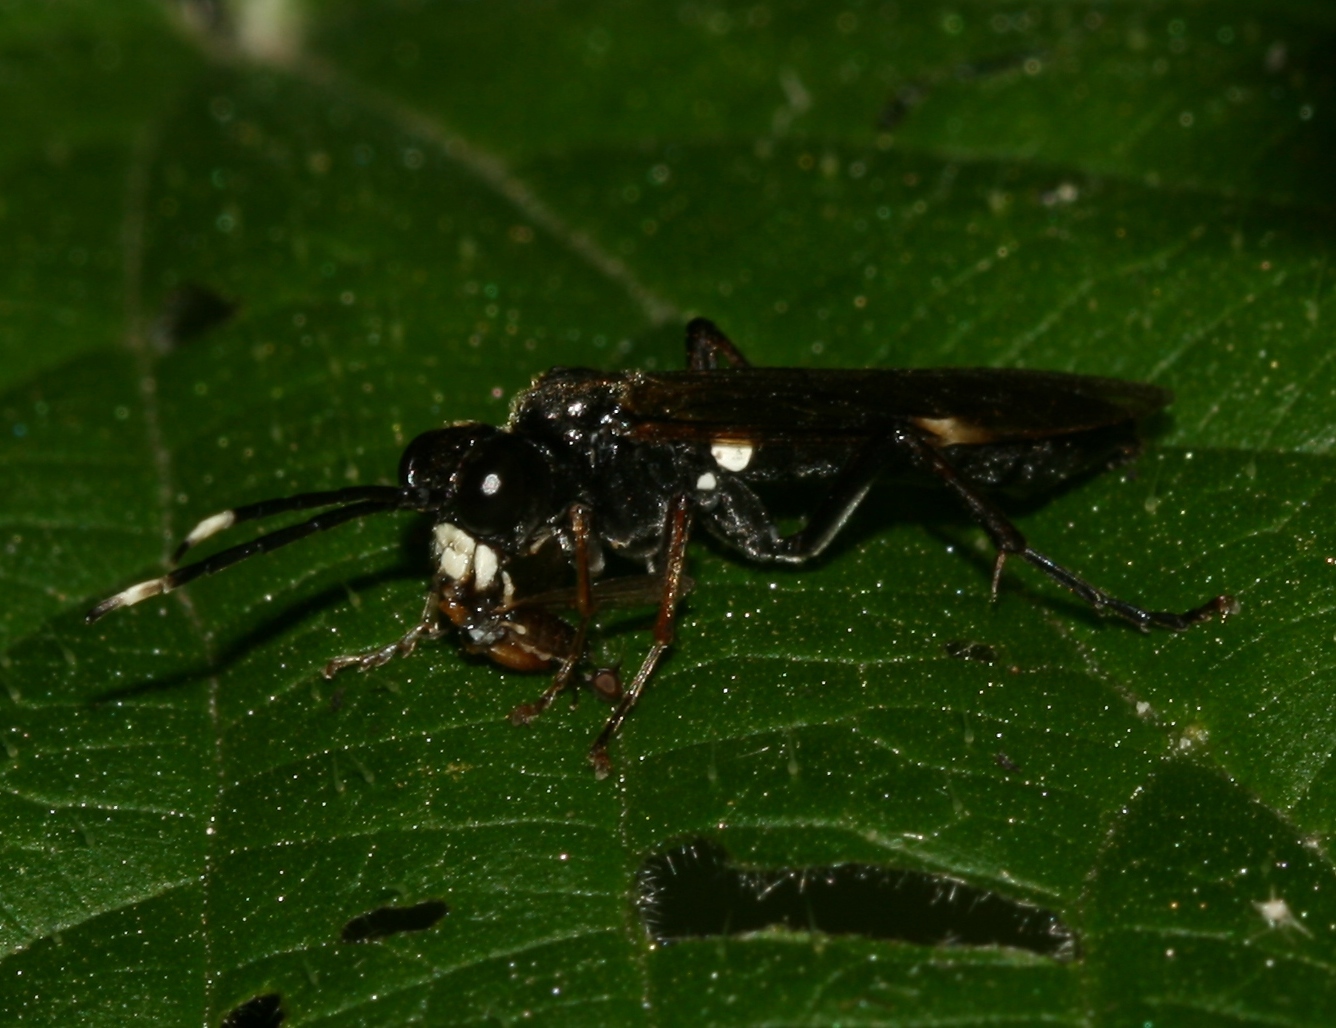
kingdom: Animalia
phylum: Arthropoda
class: Insecta
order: Hymenoptera
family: Tenthredinidae
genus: Tenthredo
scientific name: Tenthredo livida
